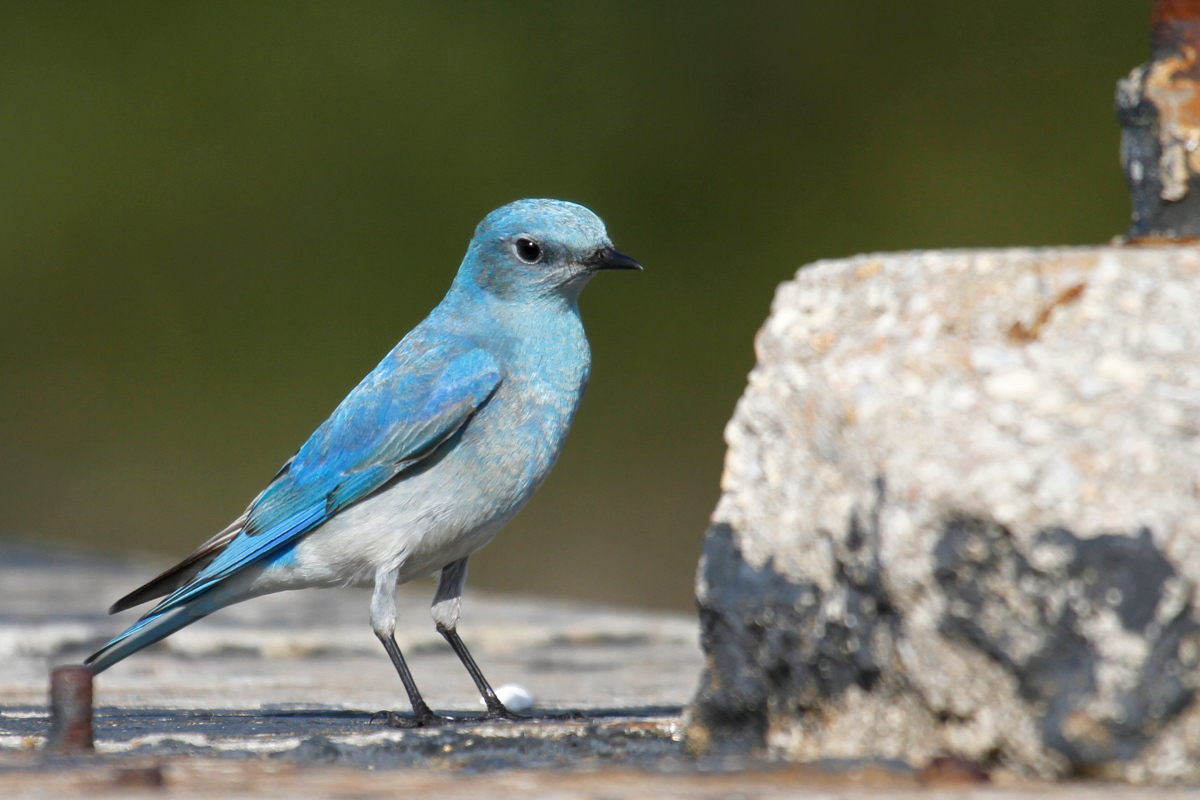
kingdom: Animalia
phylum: Chordata
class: Aves
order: Passeriformes
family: Turdidae
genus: Sialia
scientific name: Sialia currucoides
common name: Mountain bluebird
